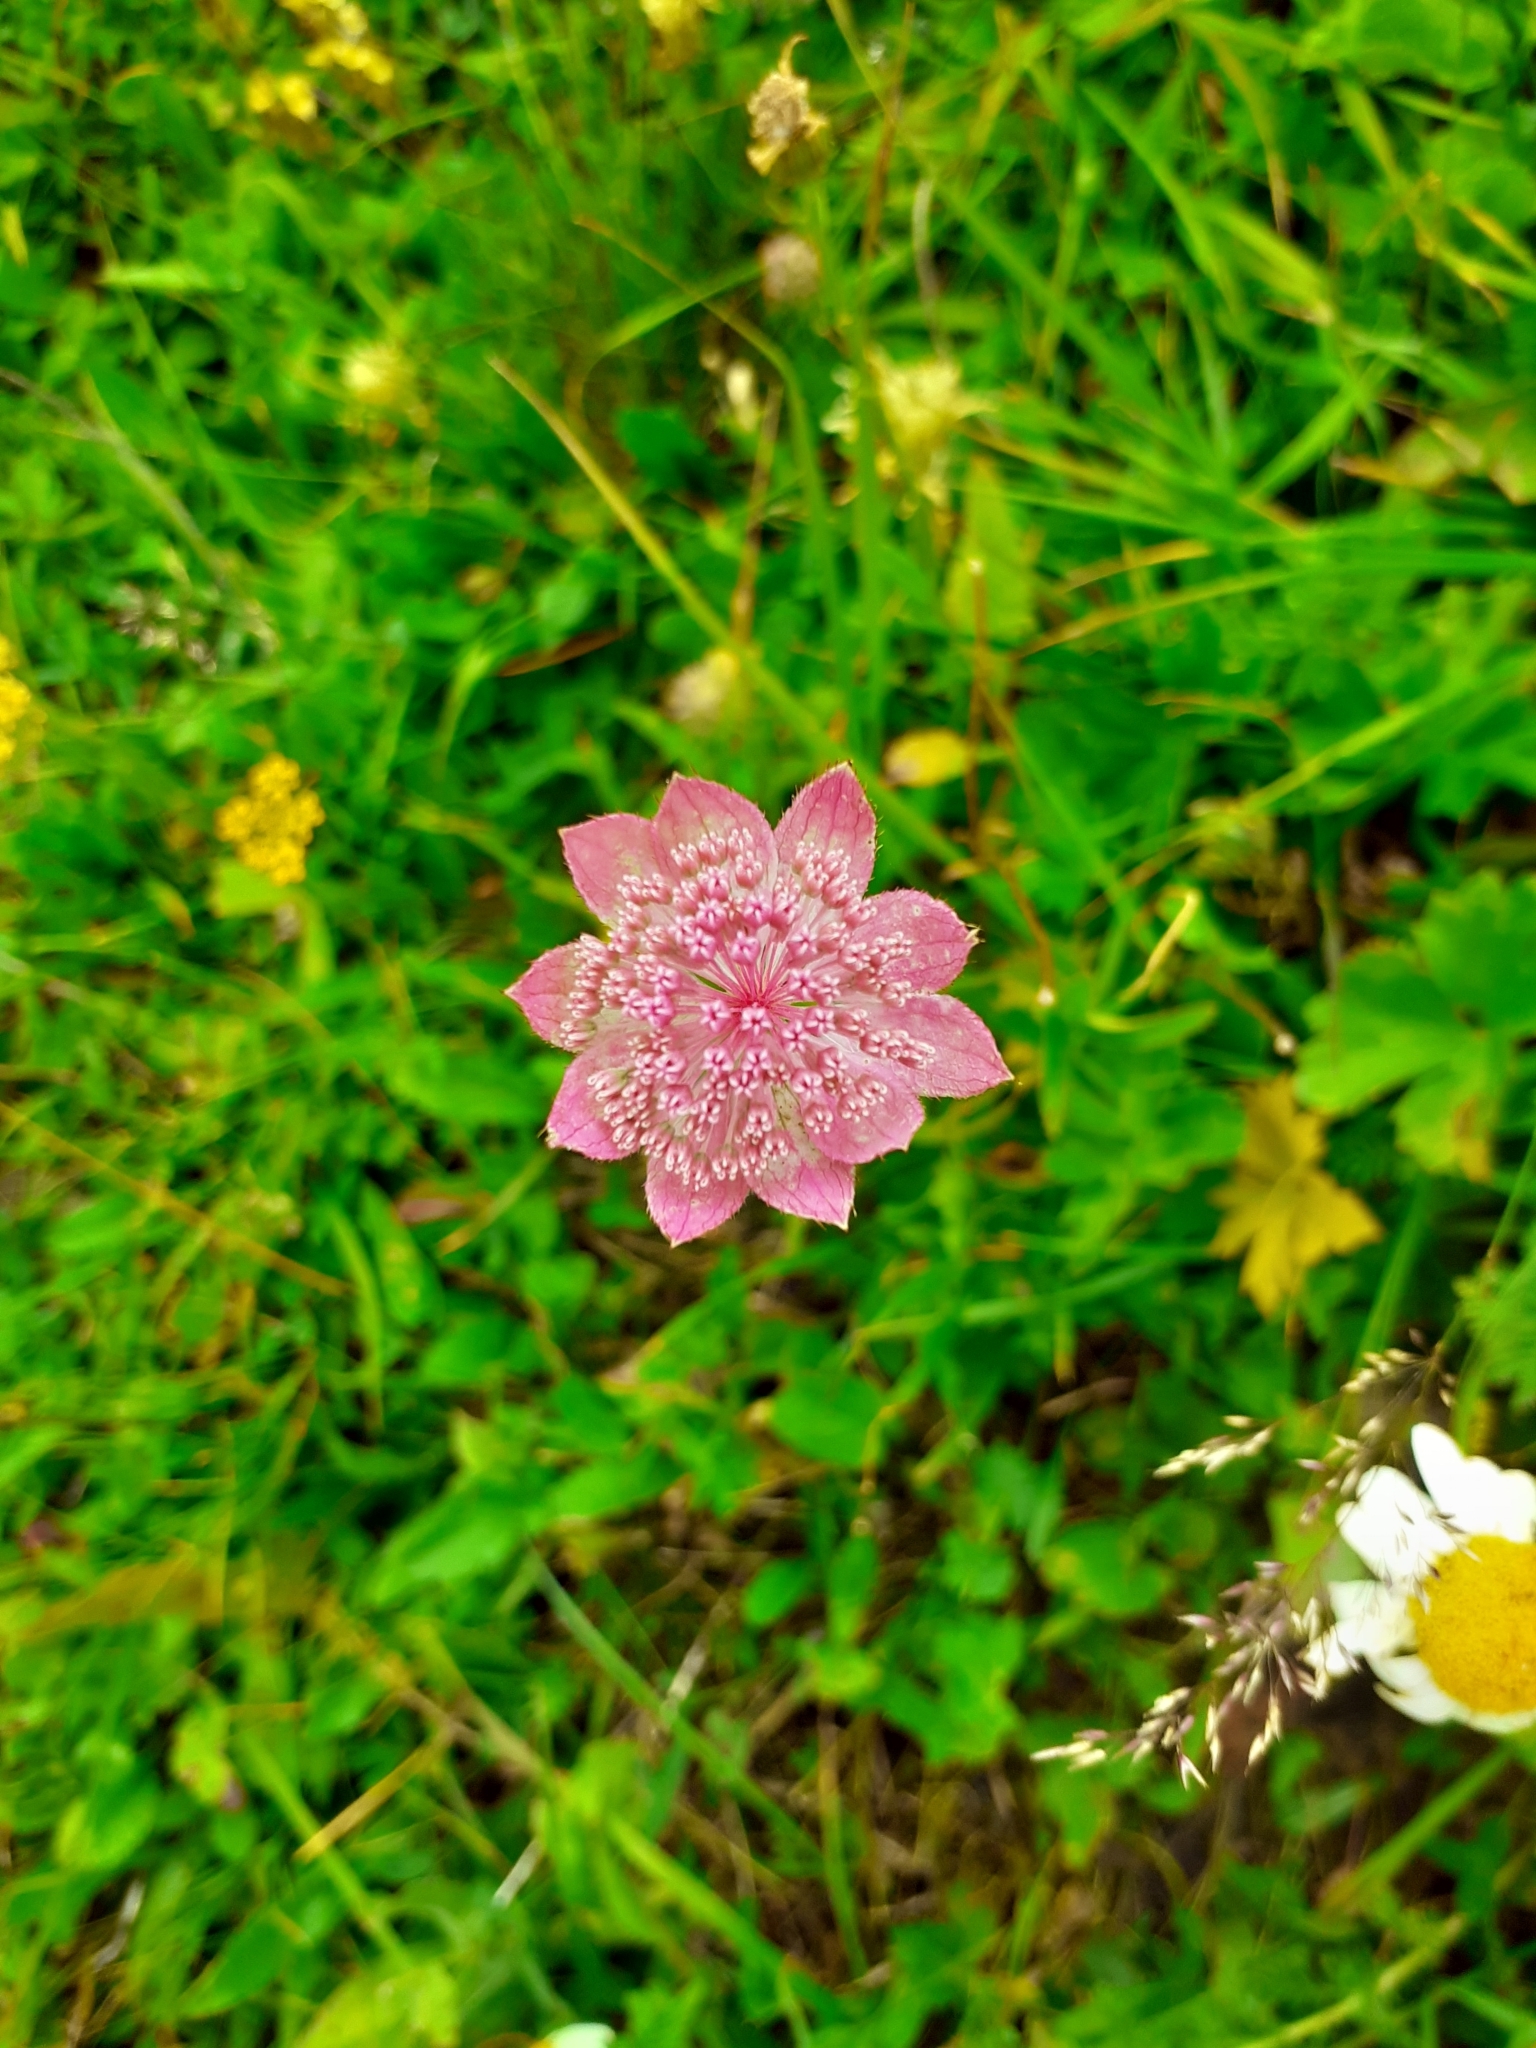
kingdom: Plantae
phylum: Tracheophyta
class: Magnoliopsida
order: Apiales
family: Apiaceae
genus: Astrantia
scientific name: Astrantia maxima
